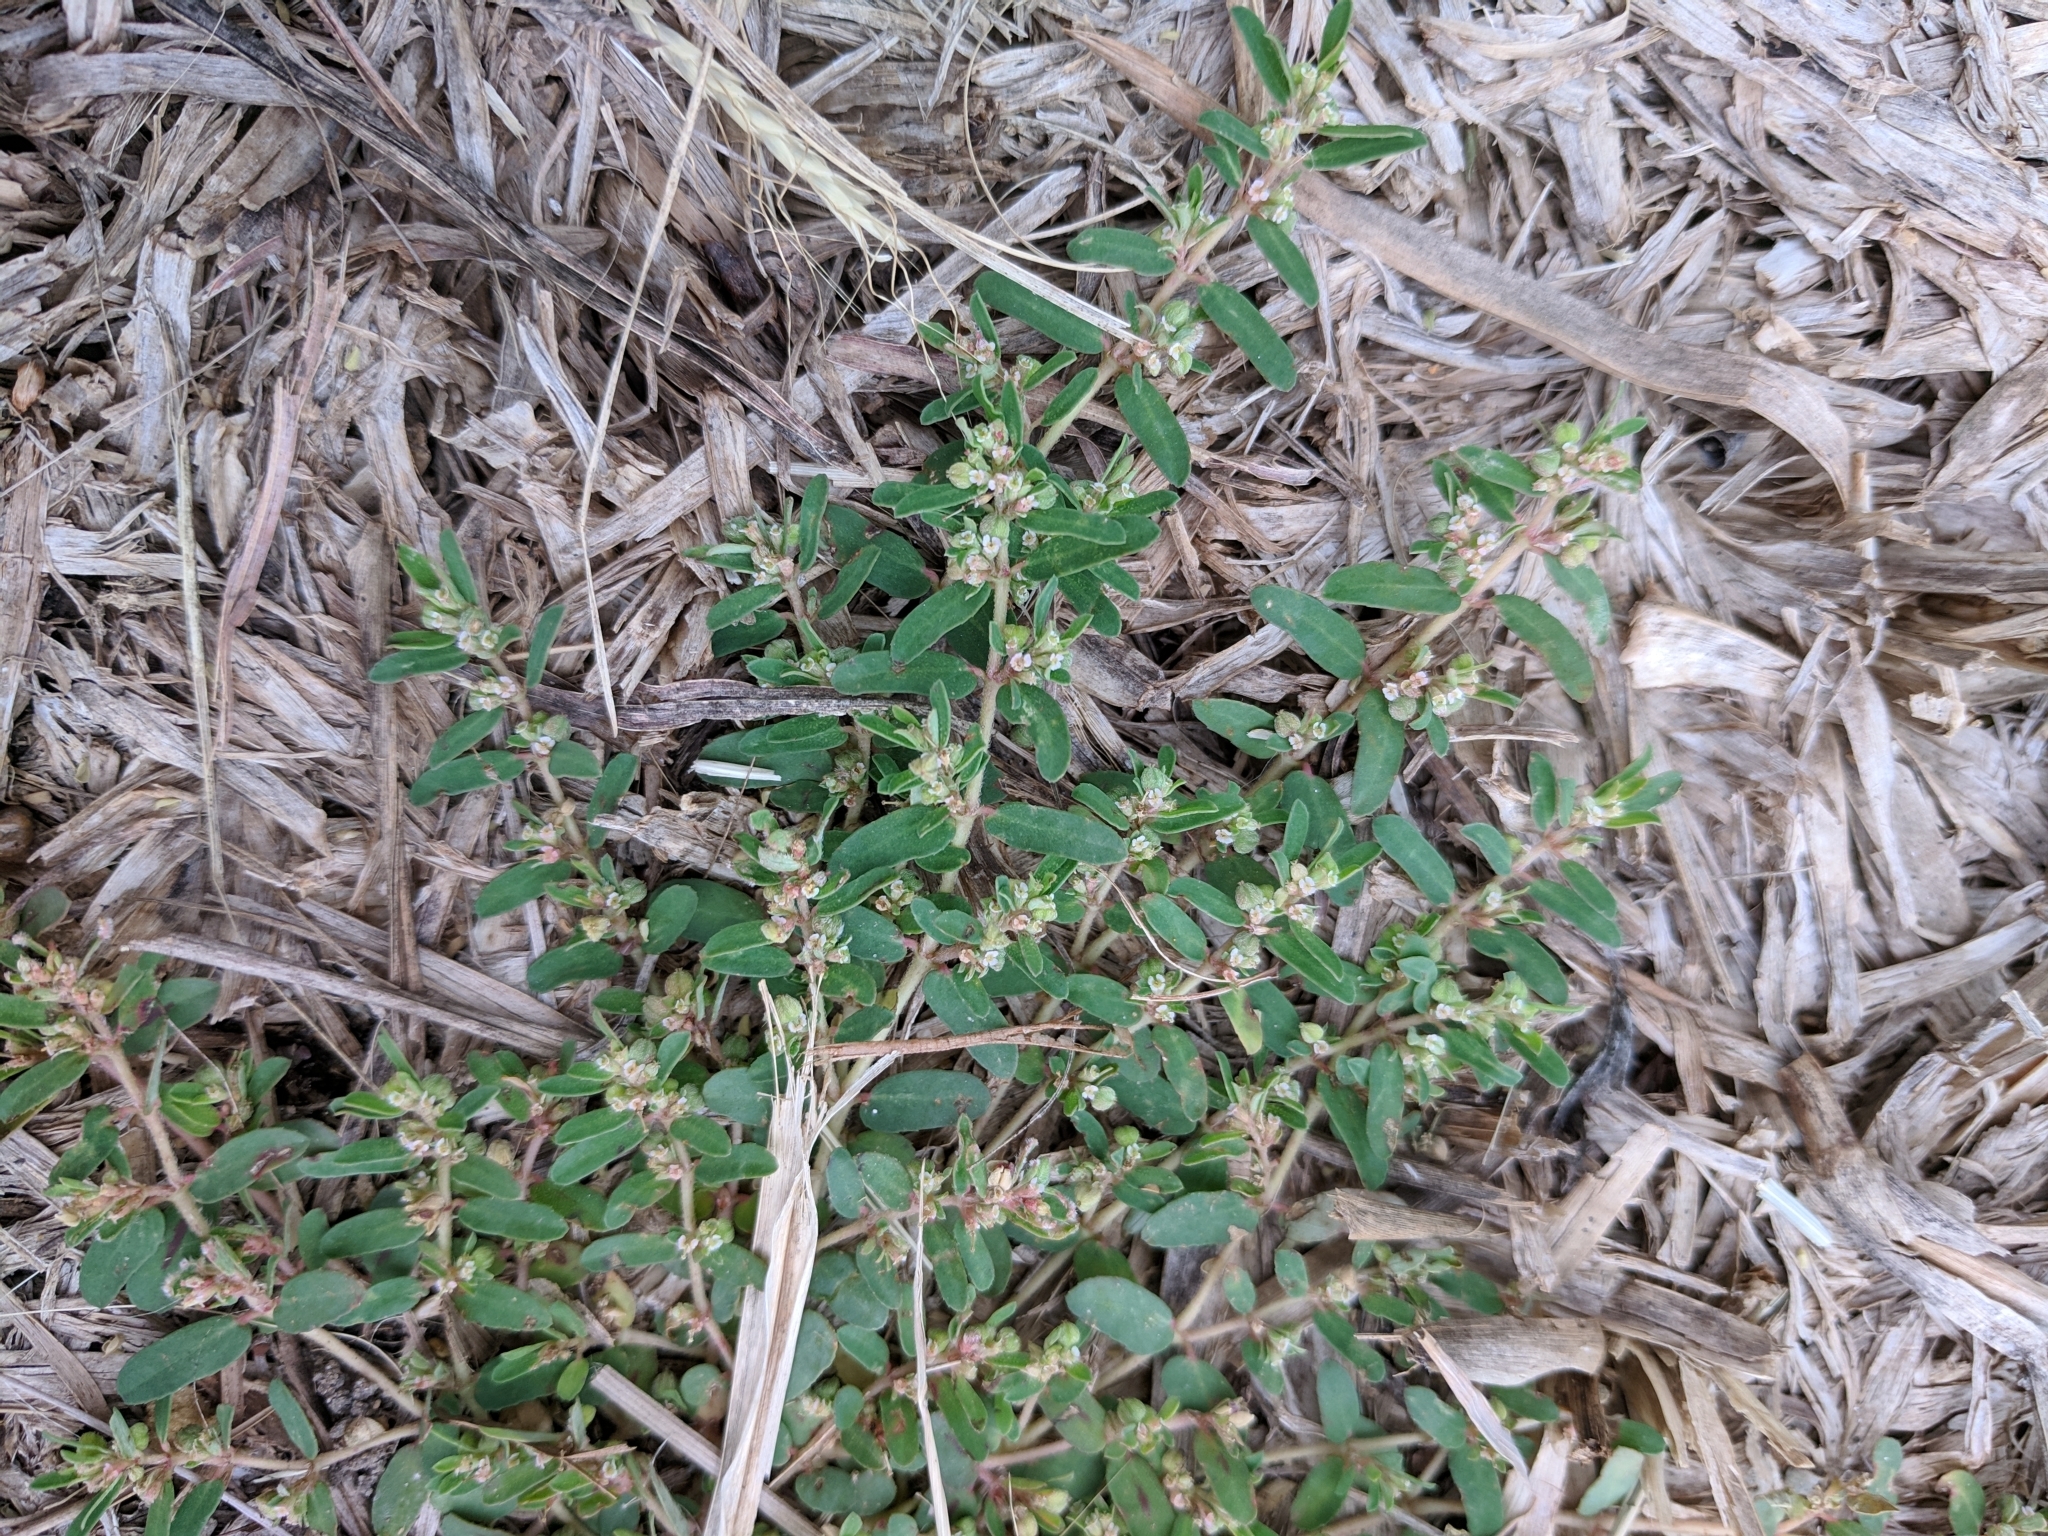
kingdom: Plantae
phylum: Tracheophyta
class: Magnoliopsida
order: Malpighiales
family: Euphorbiaceae
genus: Euphorbia
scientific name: Euphorbia maculata
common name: Spotted spurge
